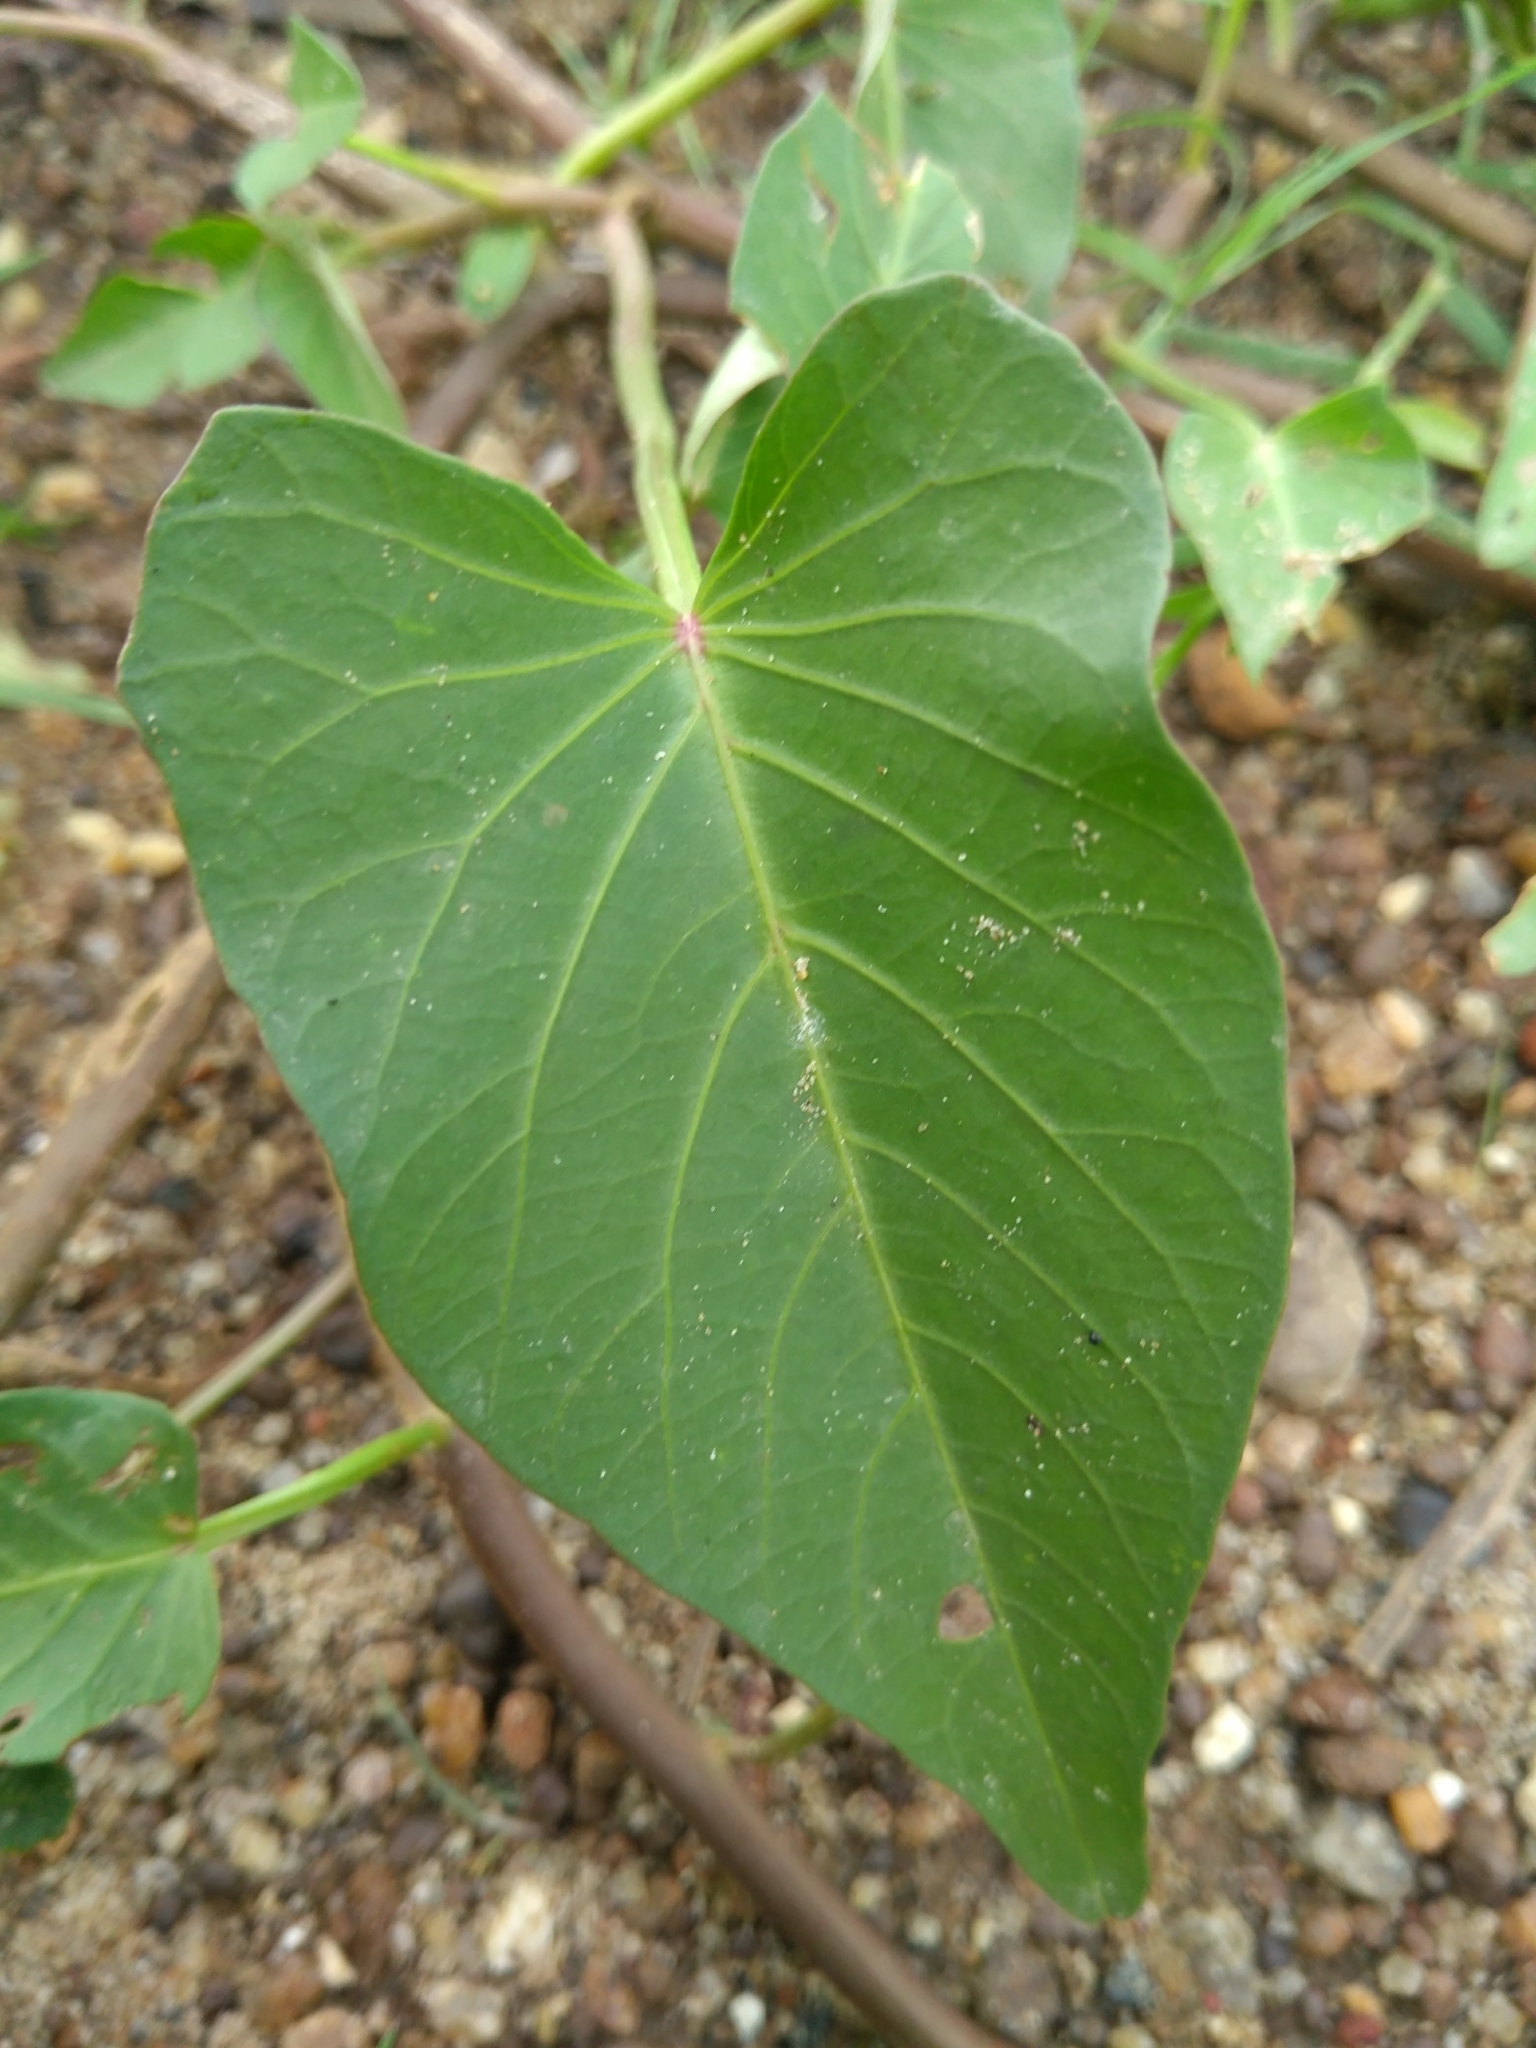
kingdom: Plantae
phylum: Tracheophyta
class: Magnoliopsida
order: Solanales
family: Convolvulaceae
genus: Ipomoea
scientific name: Ipomoea aquatica
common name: Swamp morning-glory
